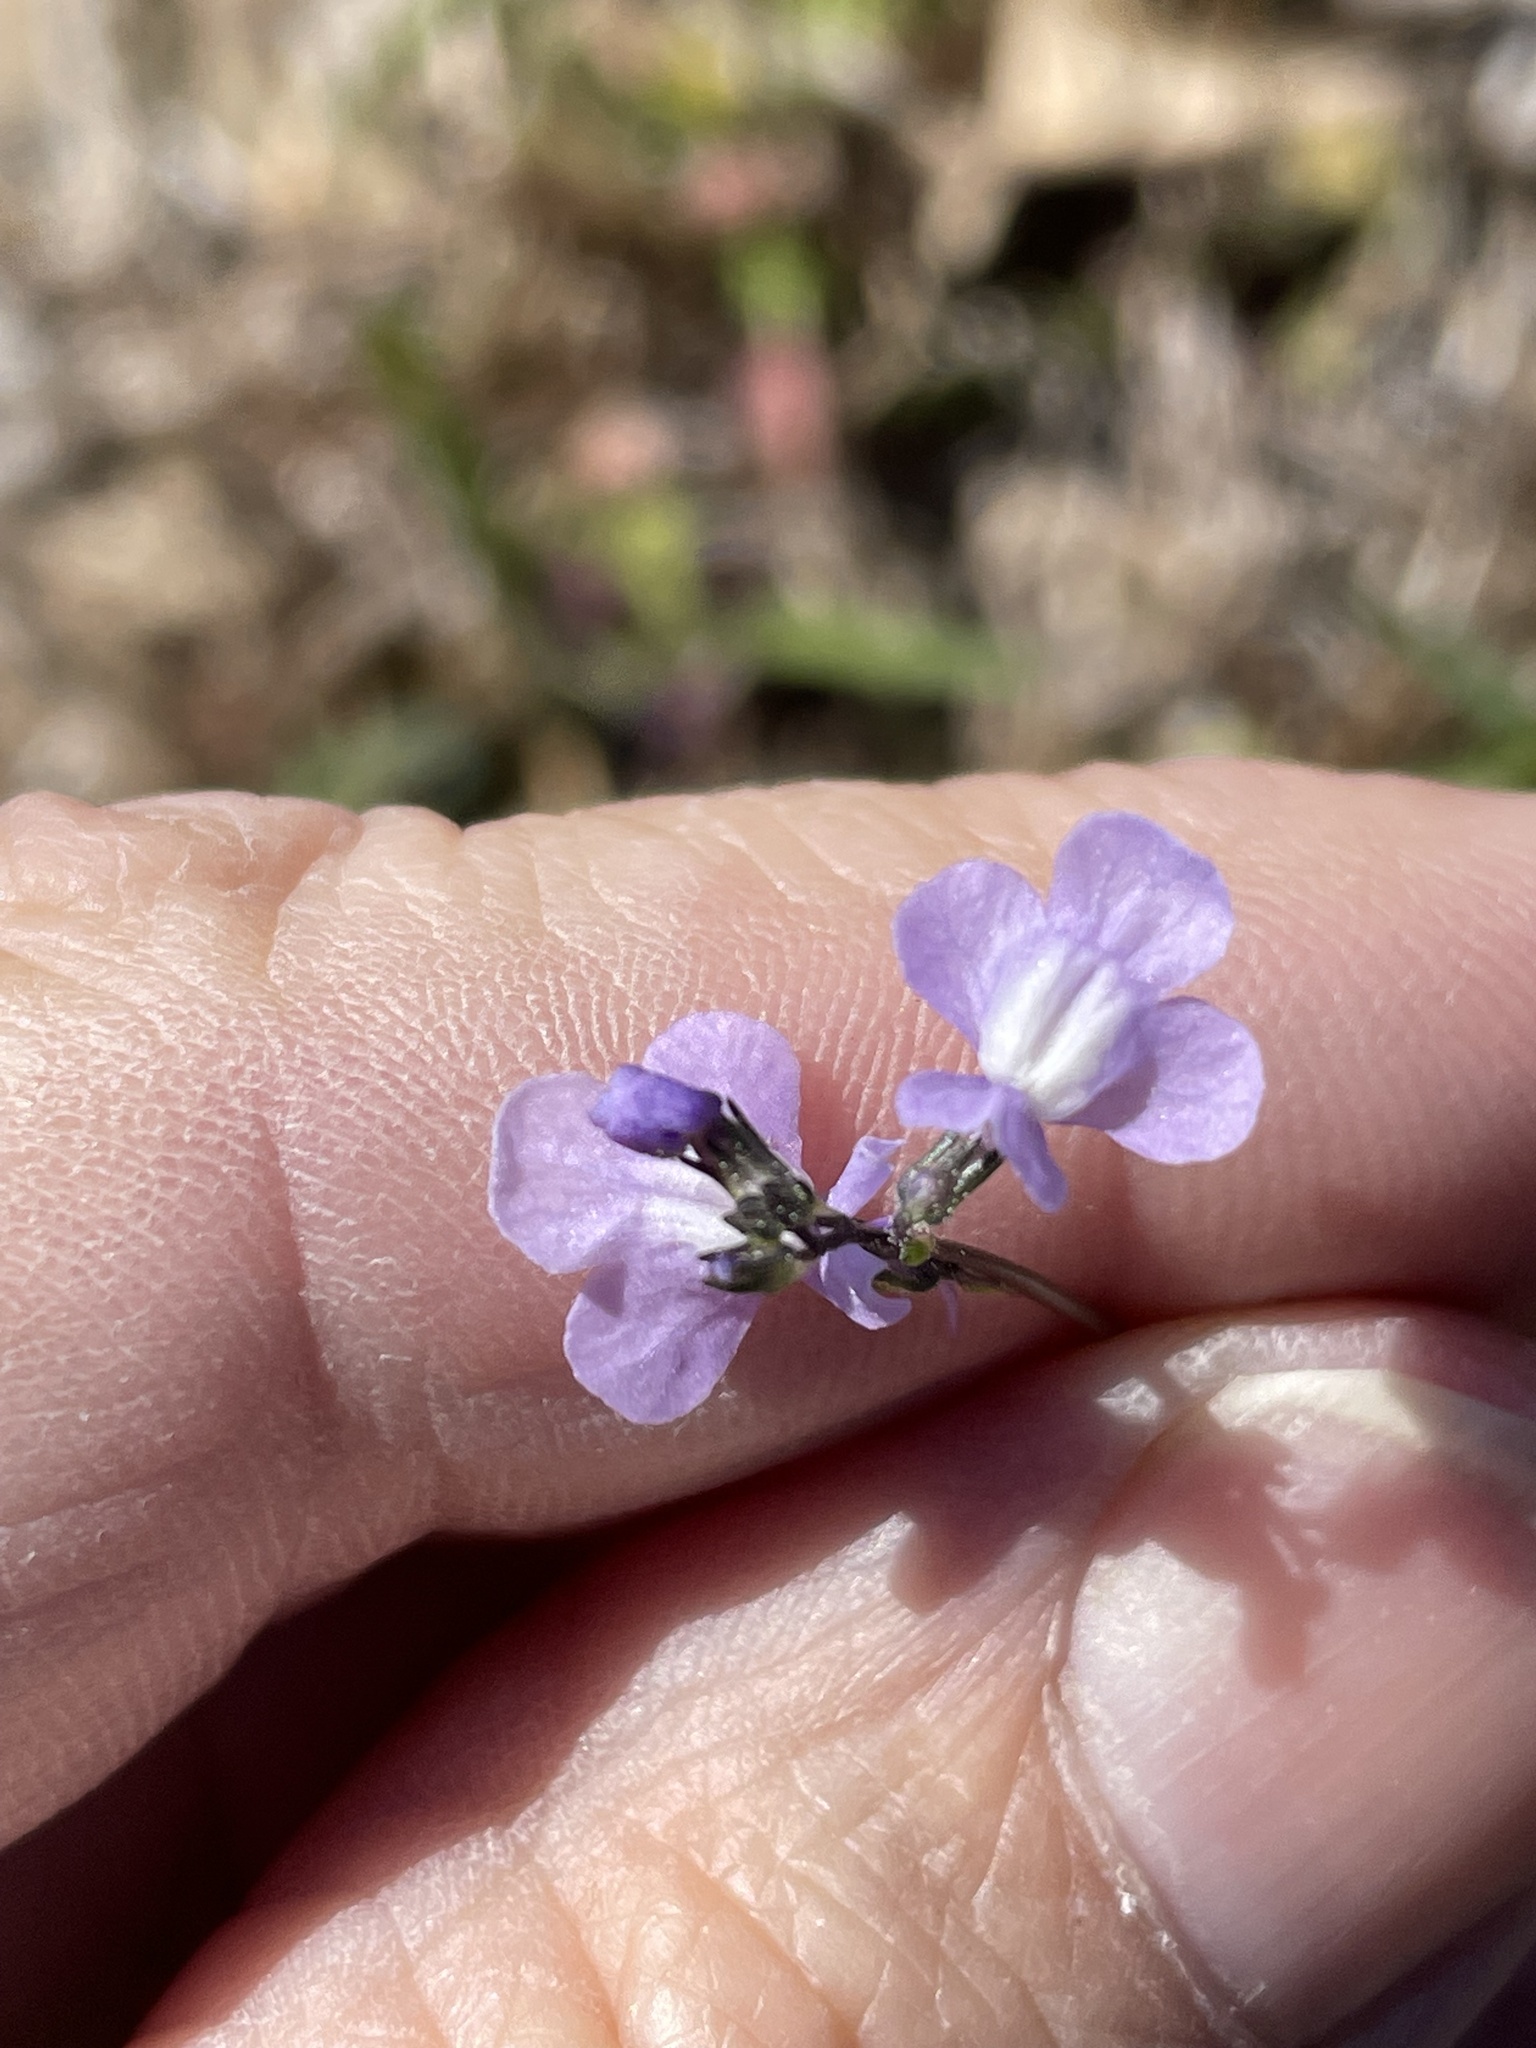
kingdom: Plantae
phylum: Tracheophyta
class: Magnoliopsida
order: Lamiales
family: Plantaginaceae
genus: Nuttallanthus
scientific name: Nuttallanthus canadensis
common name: Blue toadflax
